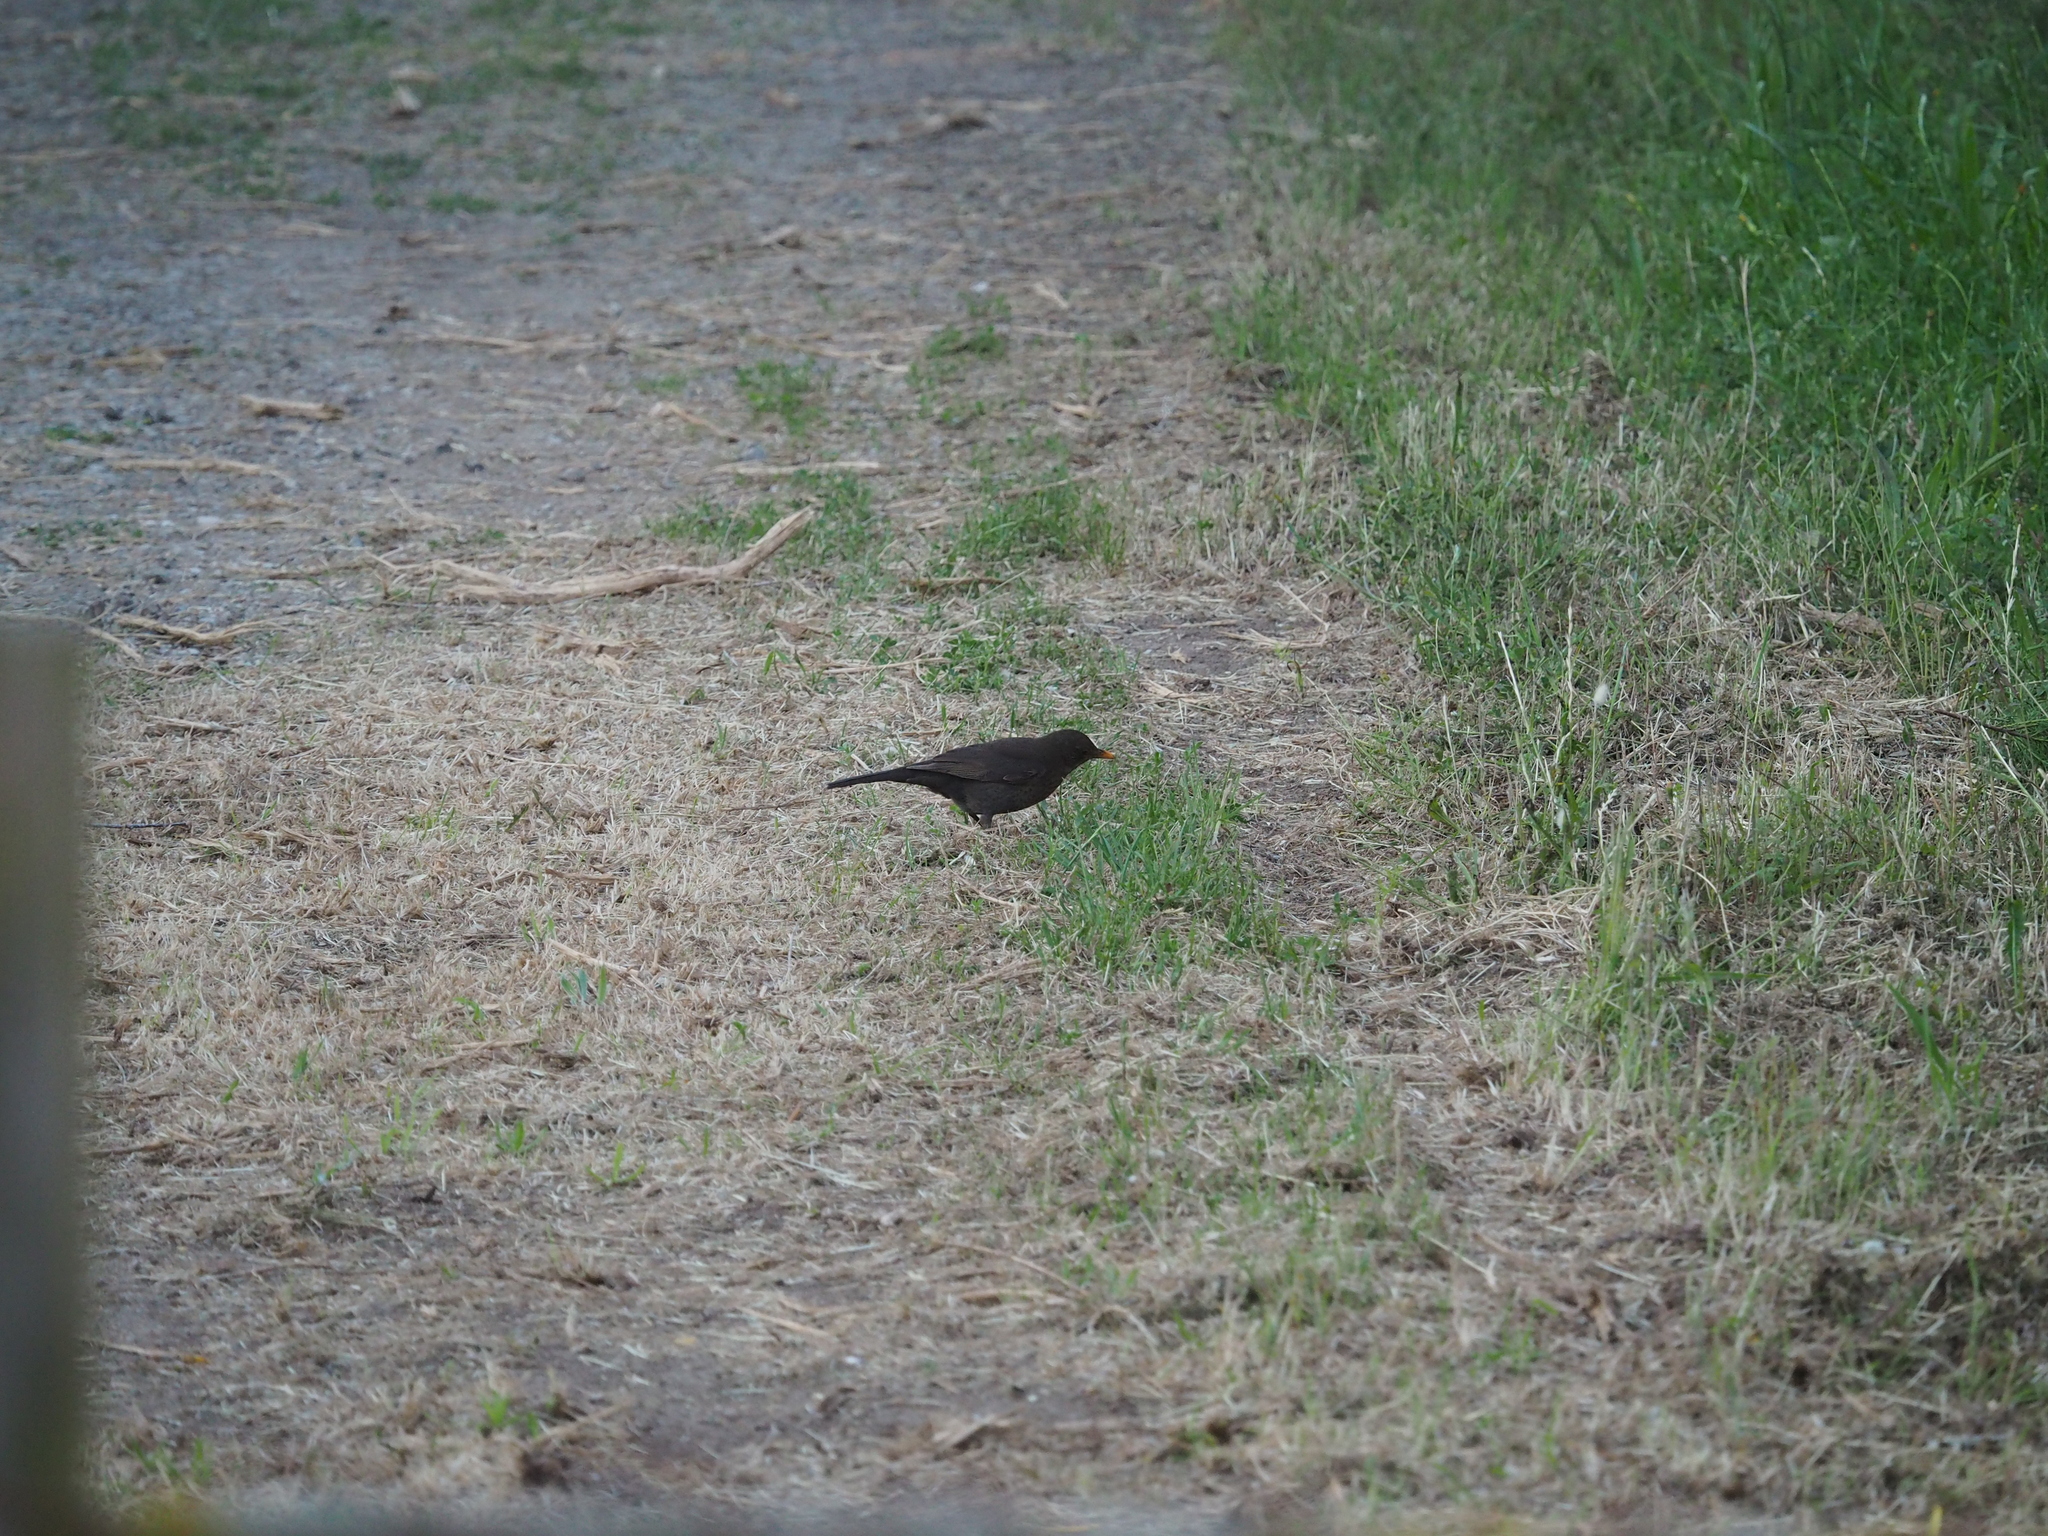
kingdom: Animalia
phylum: Chordata
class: Aves
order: Passeriformes
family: Turdidae
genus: Turdus
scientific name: Turdus merula
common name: Common blackbird
